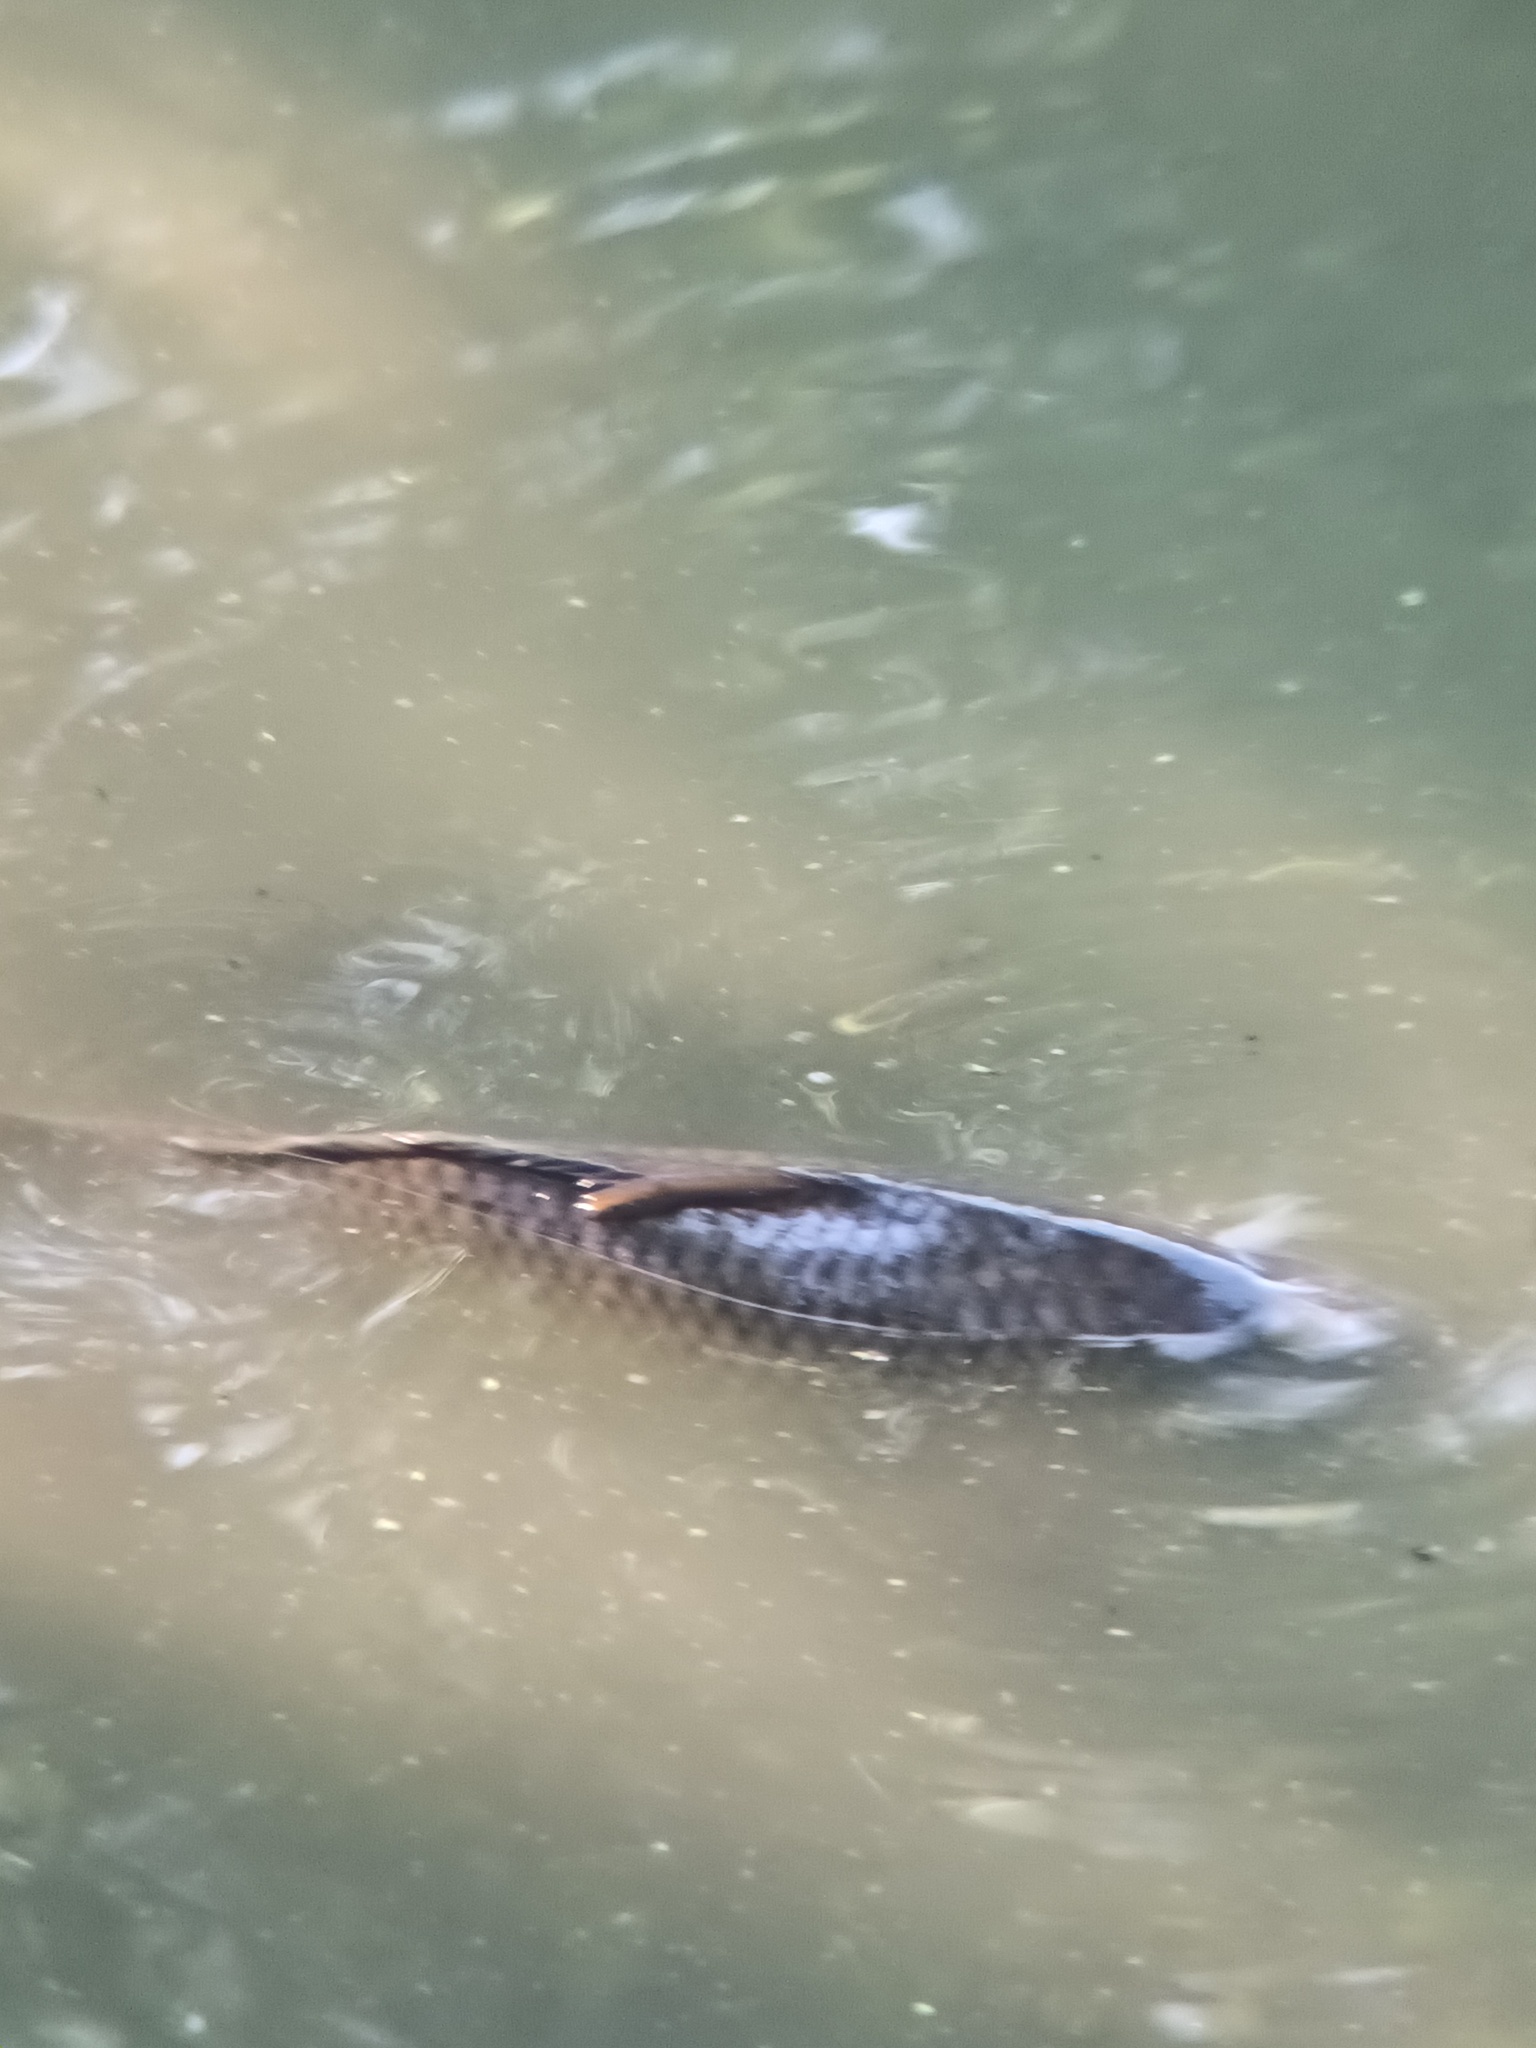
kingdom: Animalia
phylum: Chordata
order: Cypriniformes
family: Cyprinidae
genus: Cyprinus
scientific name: Cyprinus carpio
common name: Common carp
